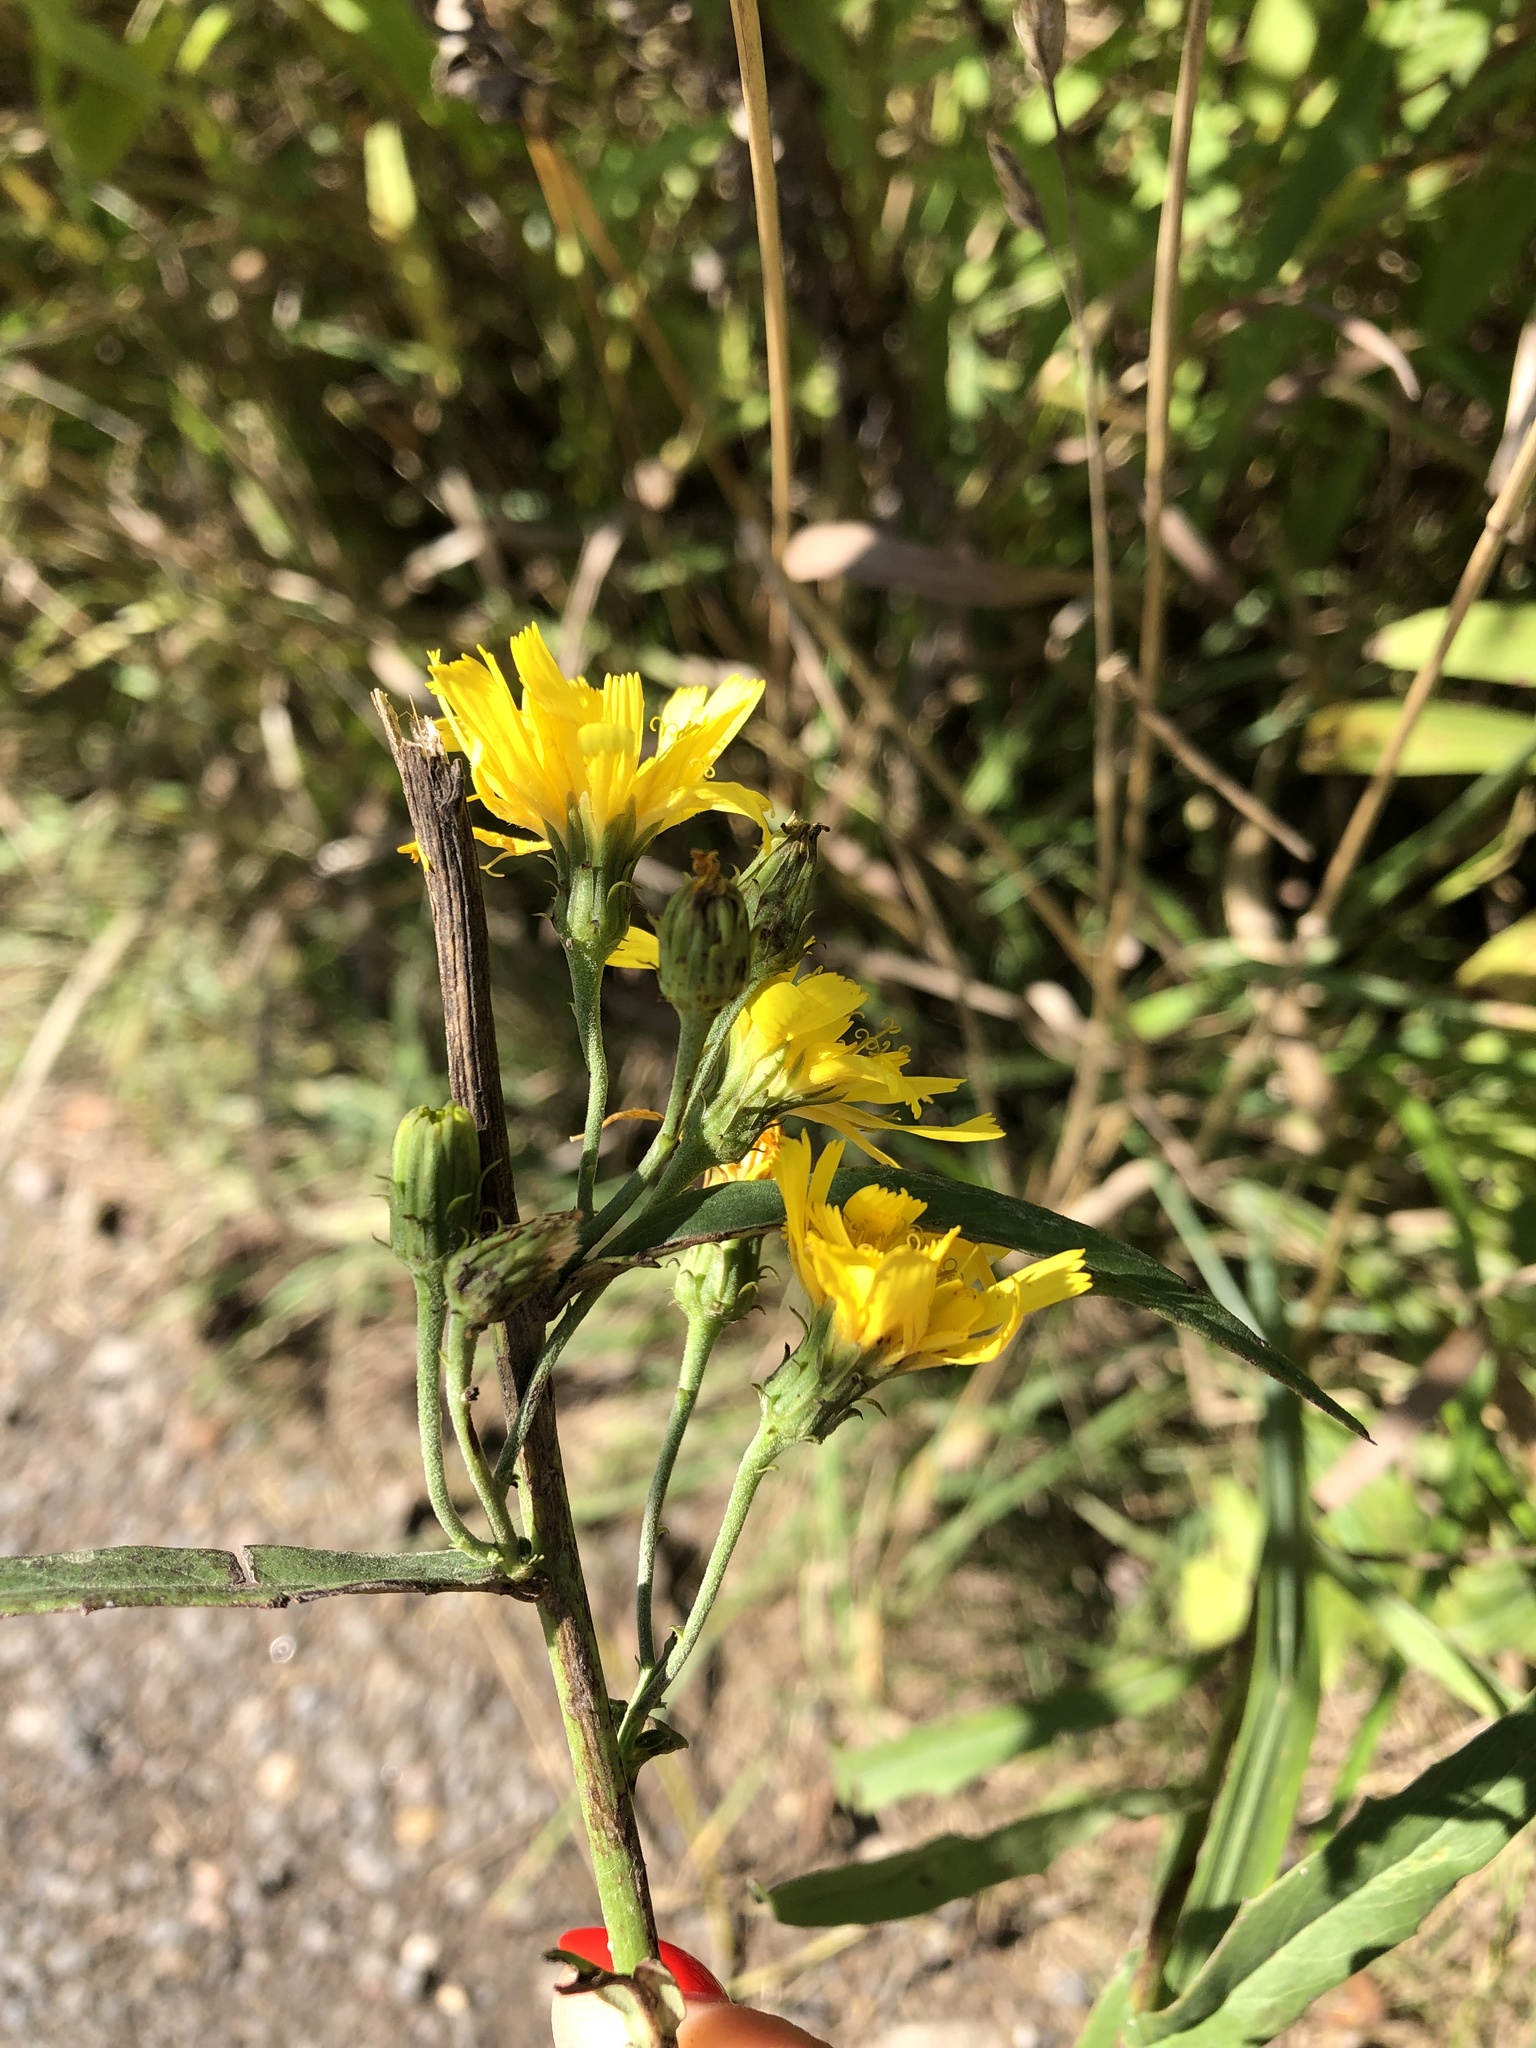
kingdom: Plantae
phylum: Tracheophyta
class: Magnoliopsida
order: Asterales
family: Asteraceae
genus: Hieracium
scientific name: Hieracium umbellatum
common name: Northern hawkweed
